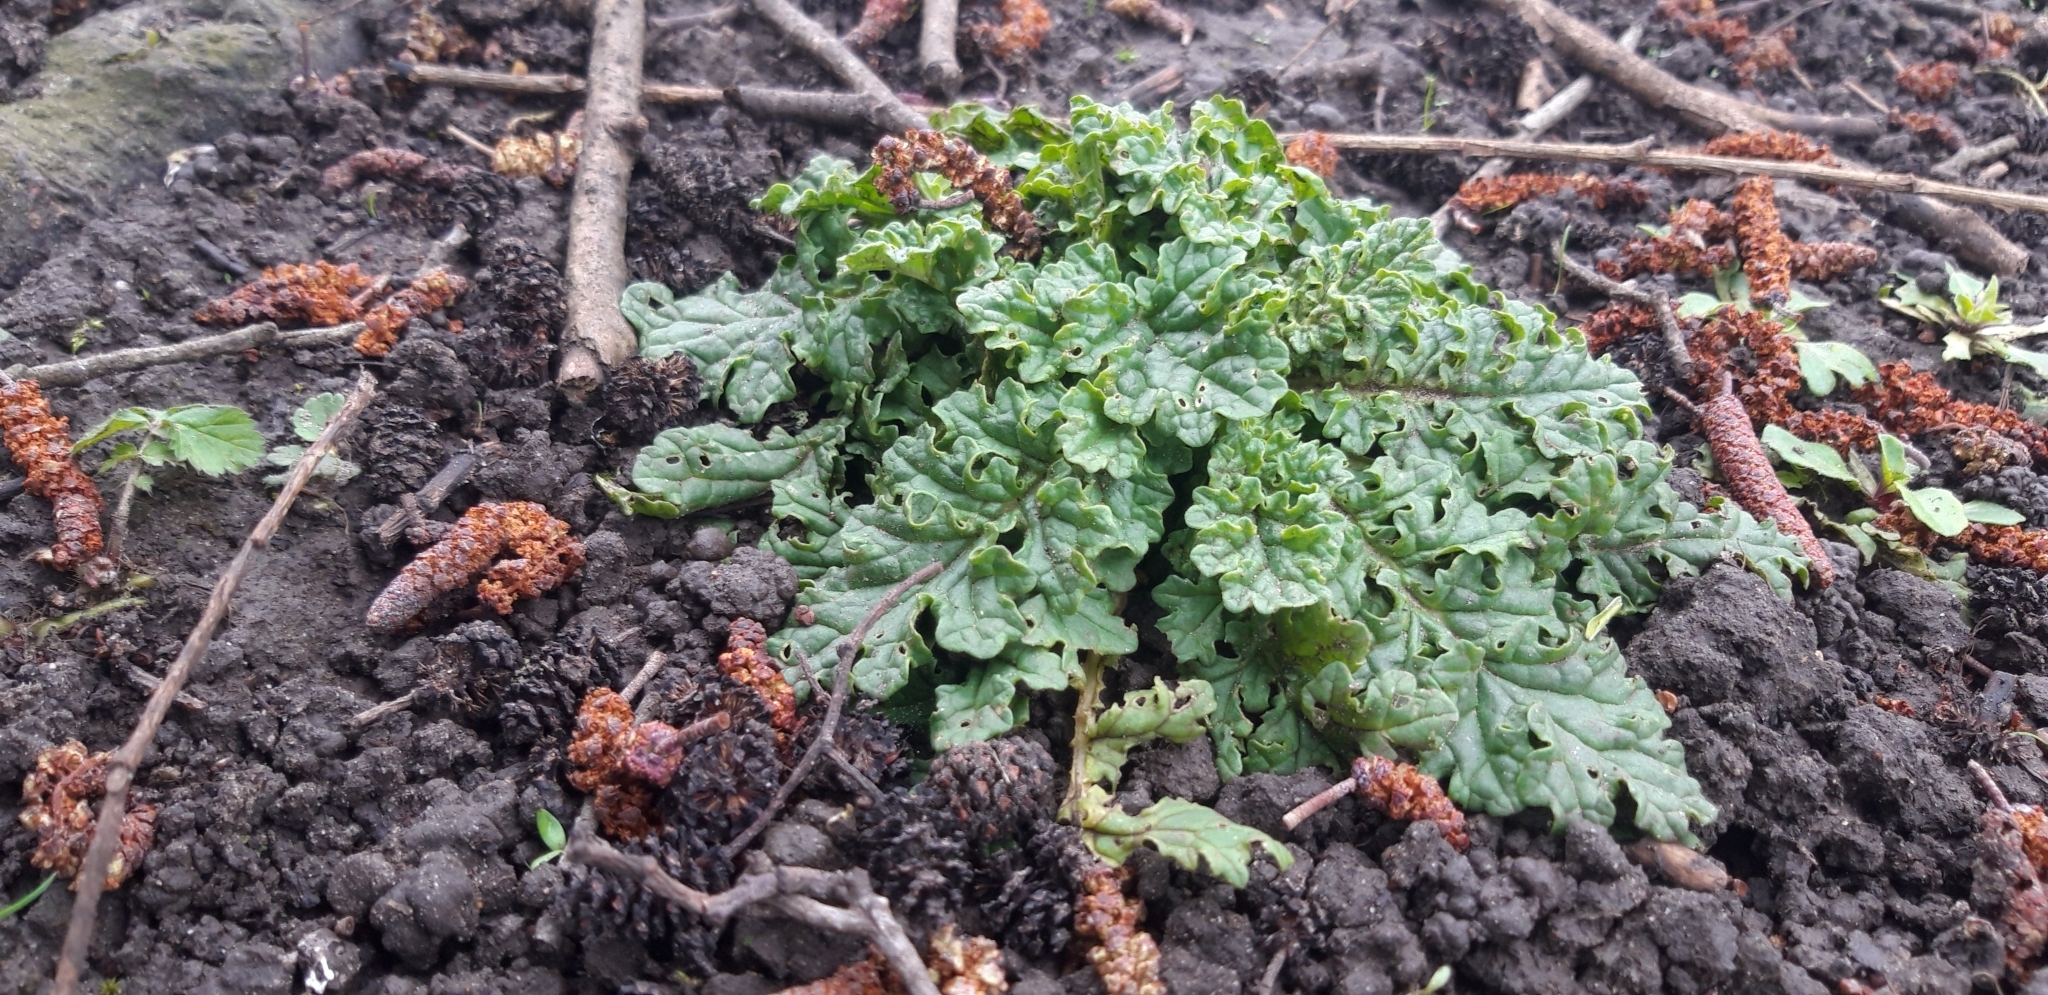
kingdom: Plantae
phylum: Tracheophyta
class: Magnoliopsida
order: Asterales
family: Asteraceae
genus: Jacobaea
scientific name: Jacobaea vulgaris
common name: Stinking willie
